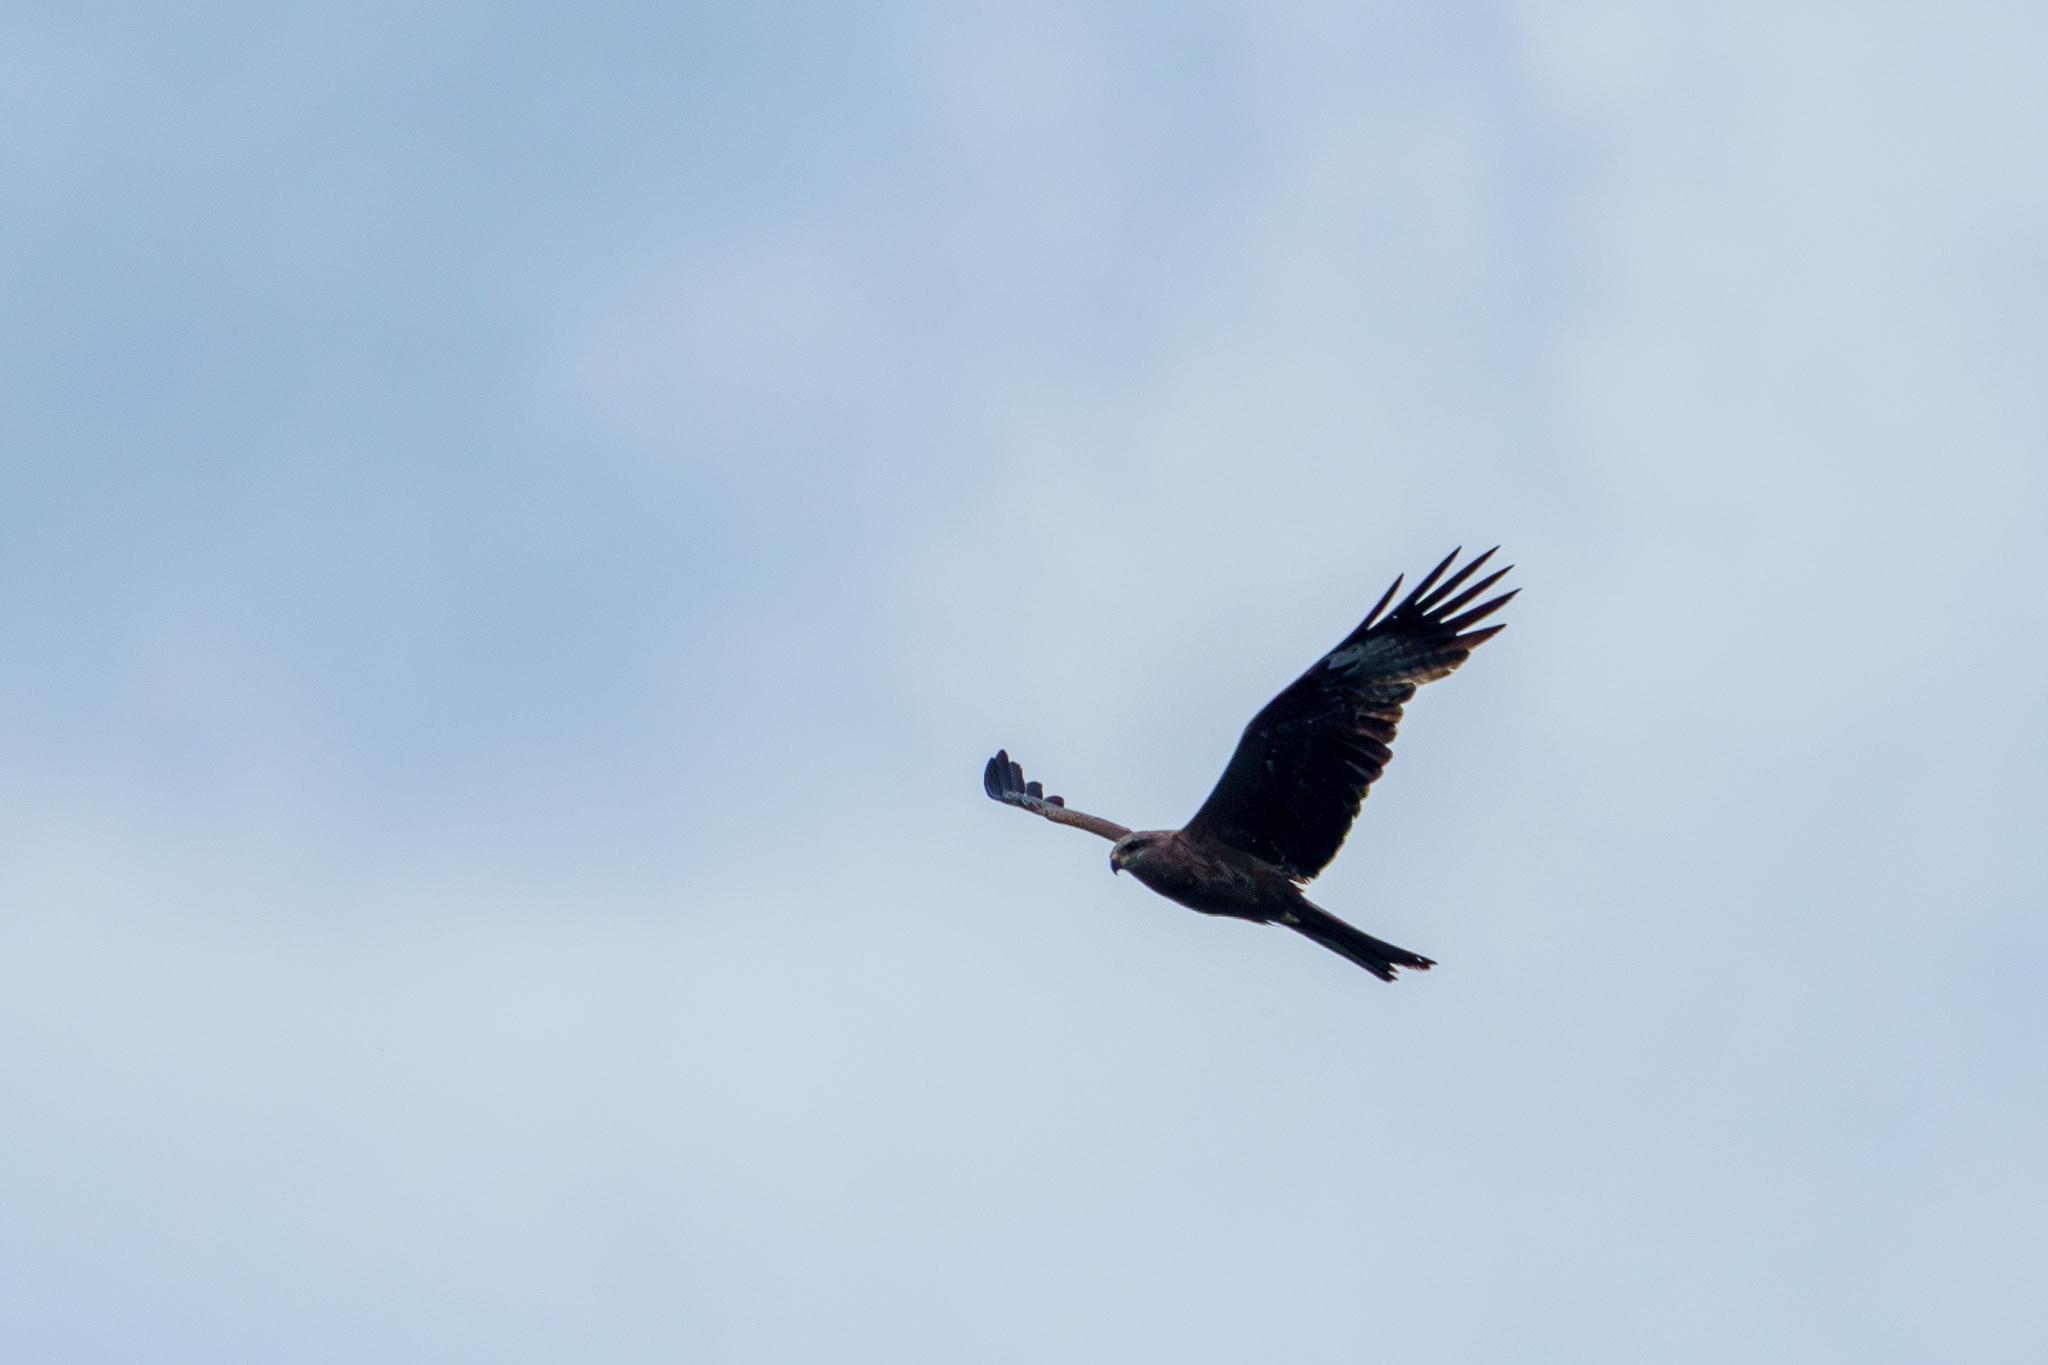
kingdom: Animalia
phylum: Chordata
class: Aves
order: Accipitriformes
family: Accipitridae
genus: Milvus
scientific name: Milvus migrans
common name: Black kite
